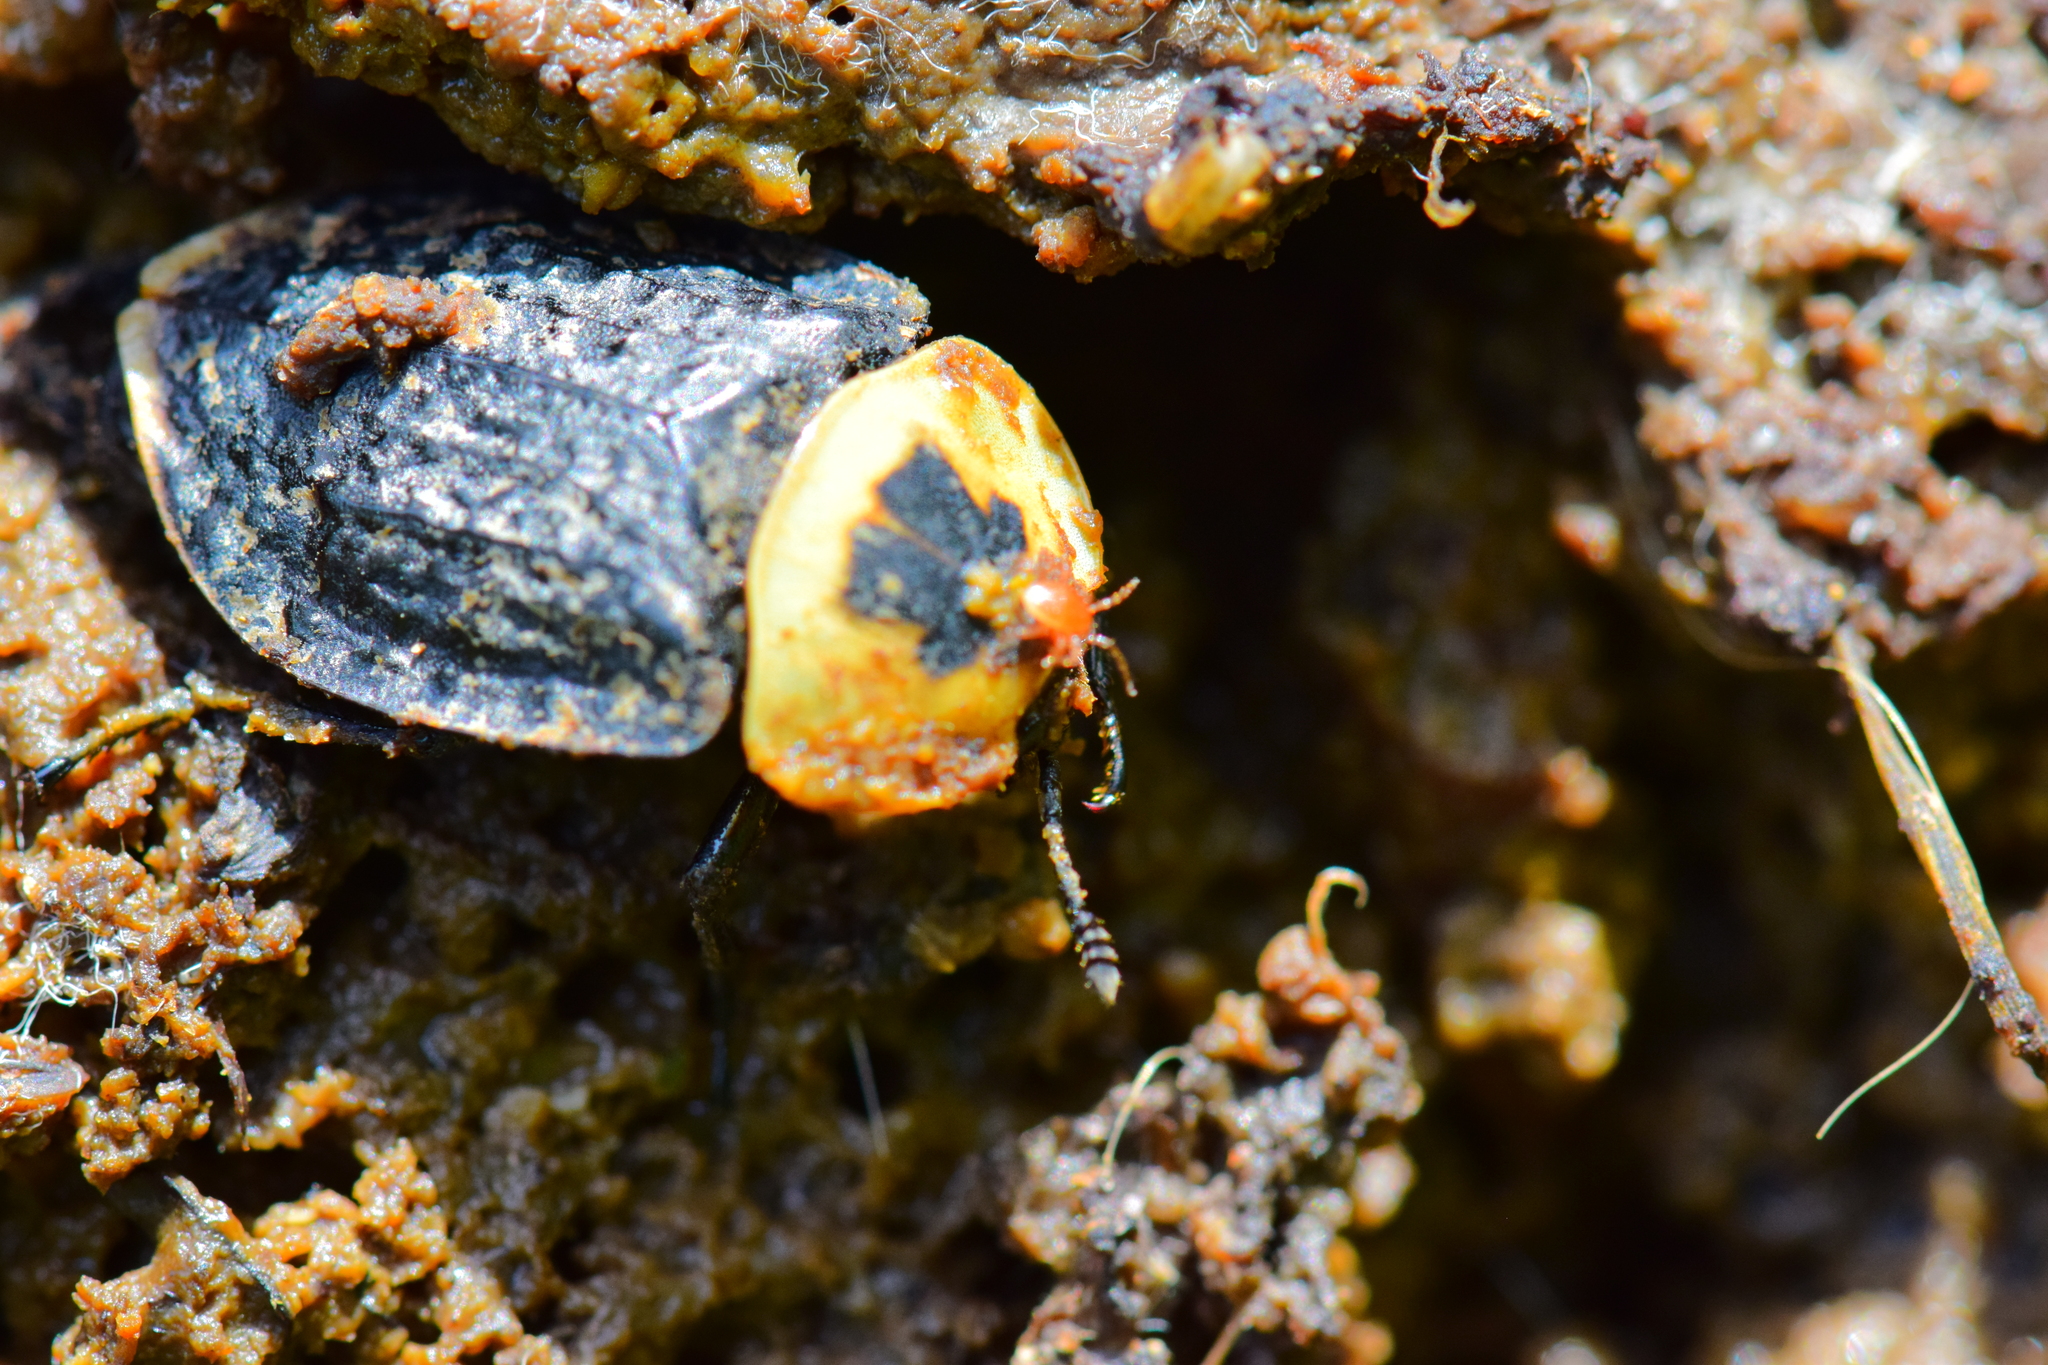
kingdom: Animalia
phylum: Arthropoda
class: Arachnida
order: Mesostigmata
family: Parasitidae
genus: Poecilochirus
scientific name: Poecilochirus
